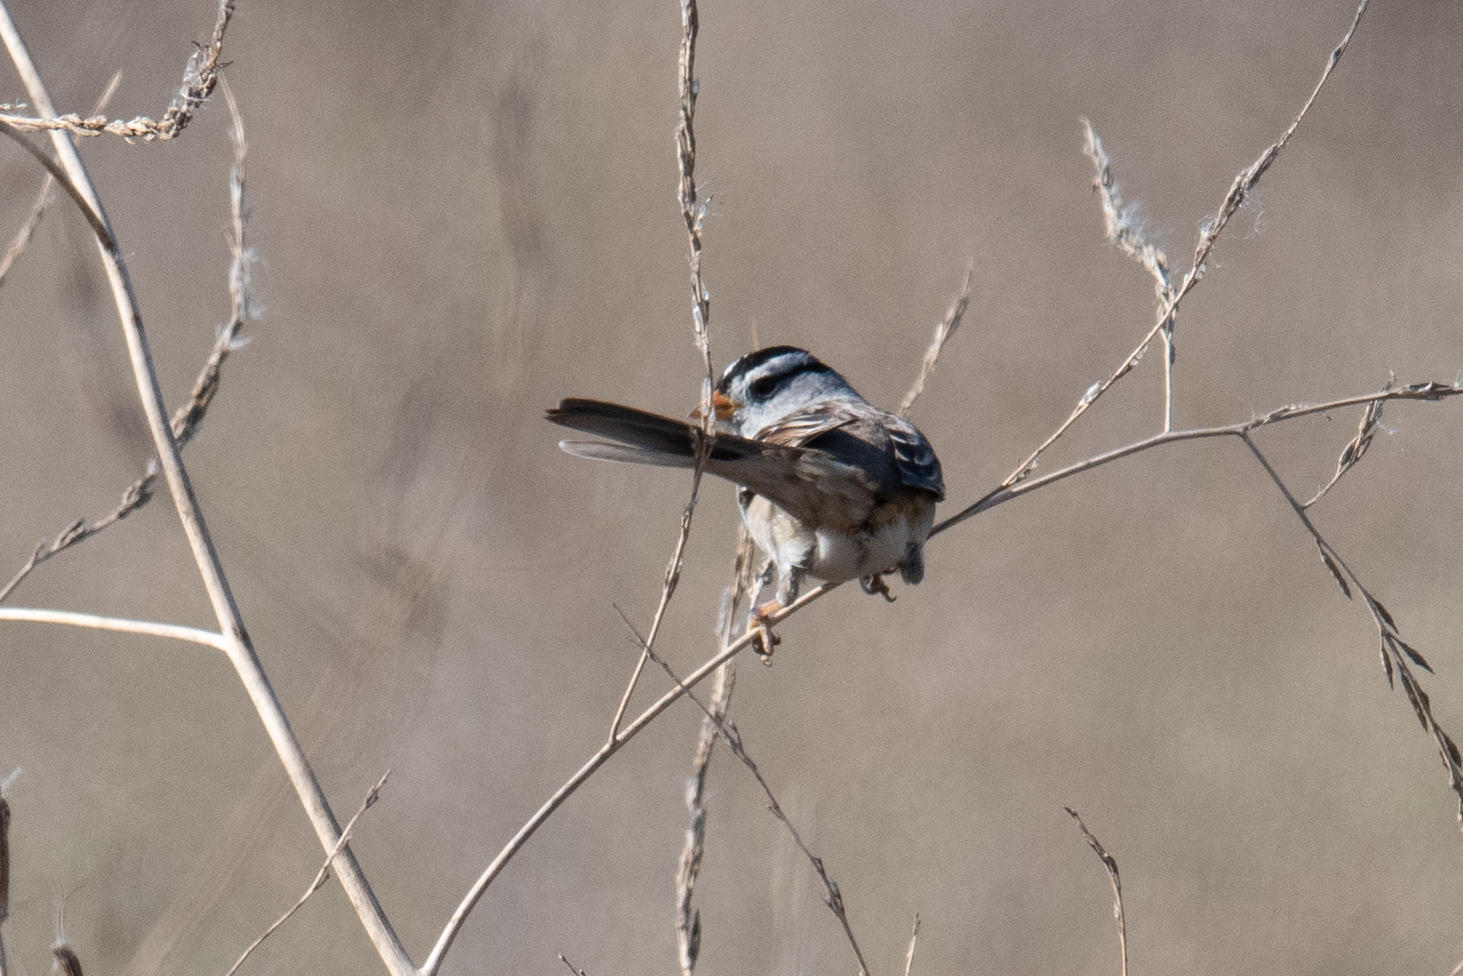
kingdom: Animalia
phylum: Chordata
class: Aves
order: Passeriformes
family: Passerellidae
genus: Zonotrichia
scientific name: Zonotrichia leucophrys
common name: White-crowned sparrow
